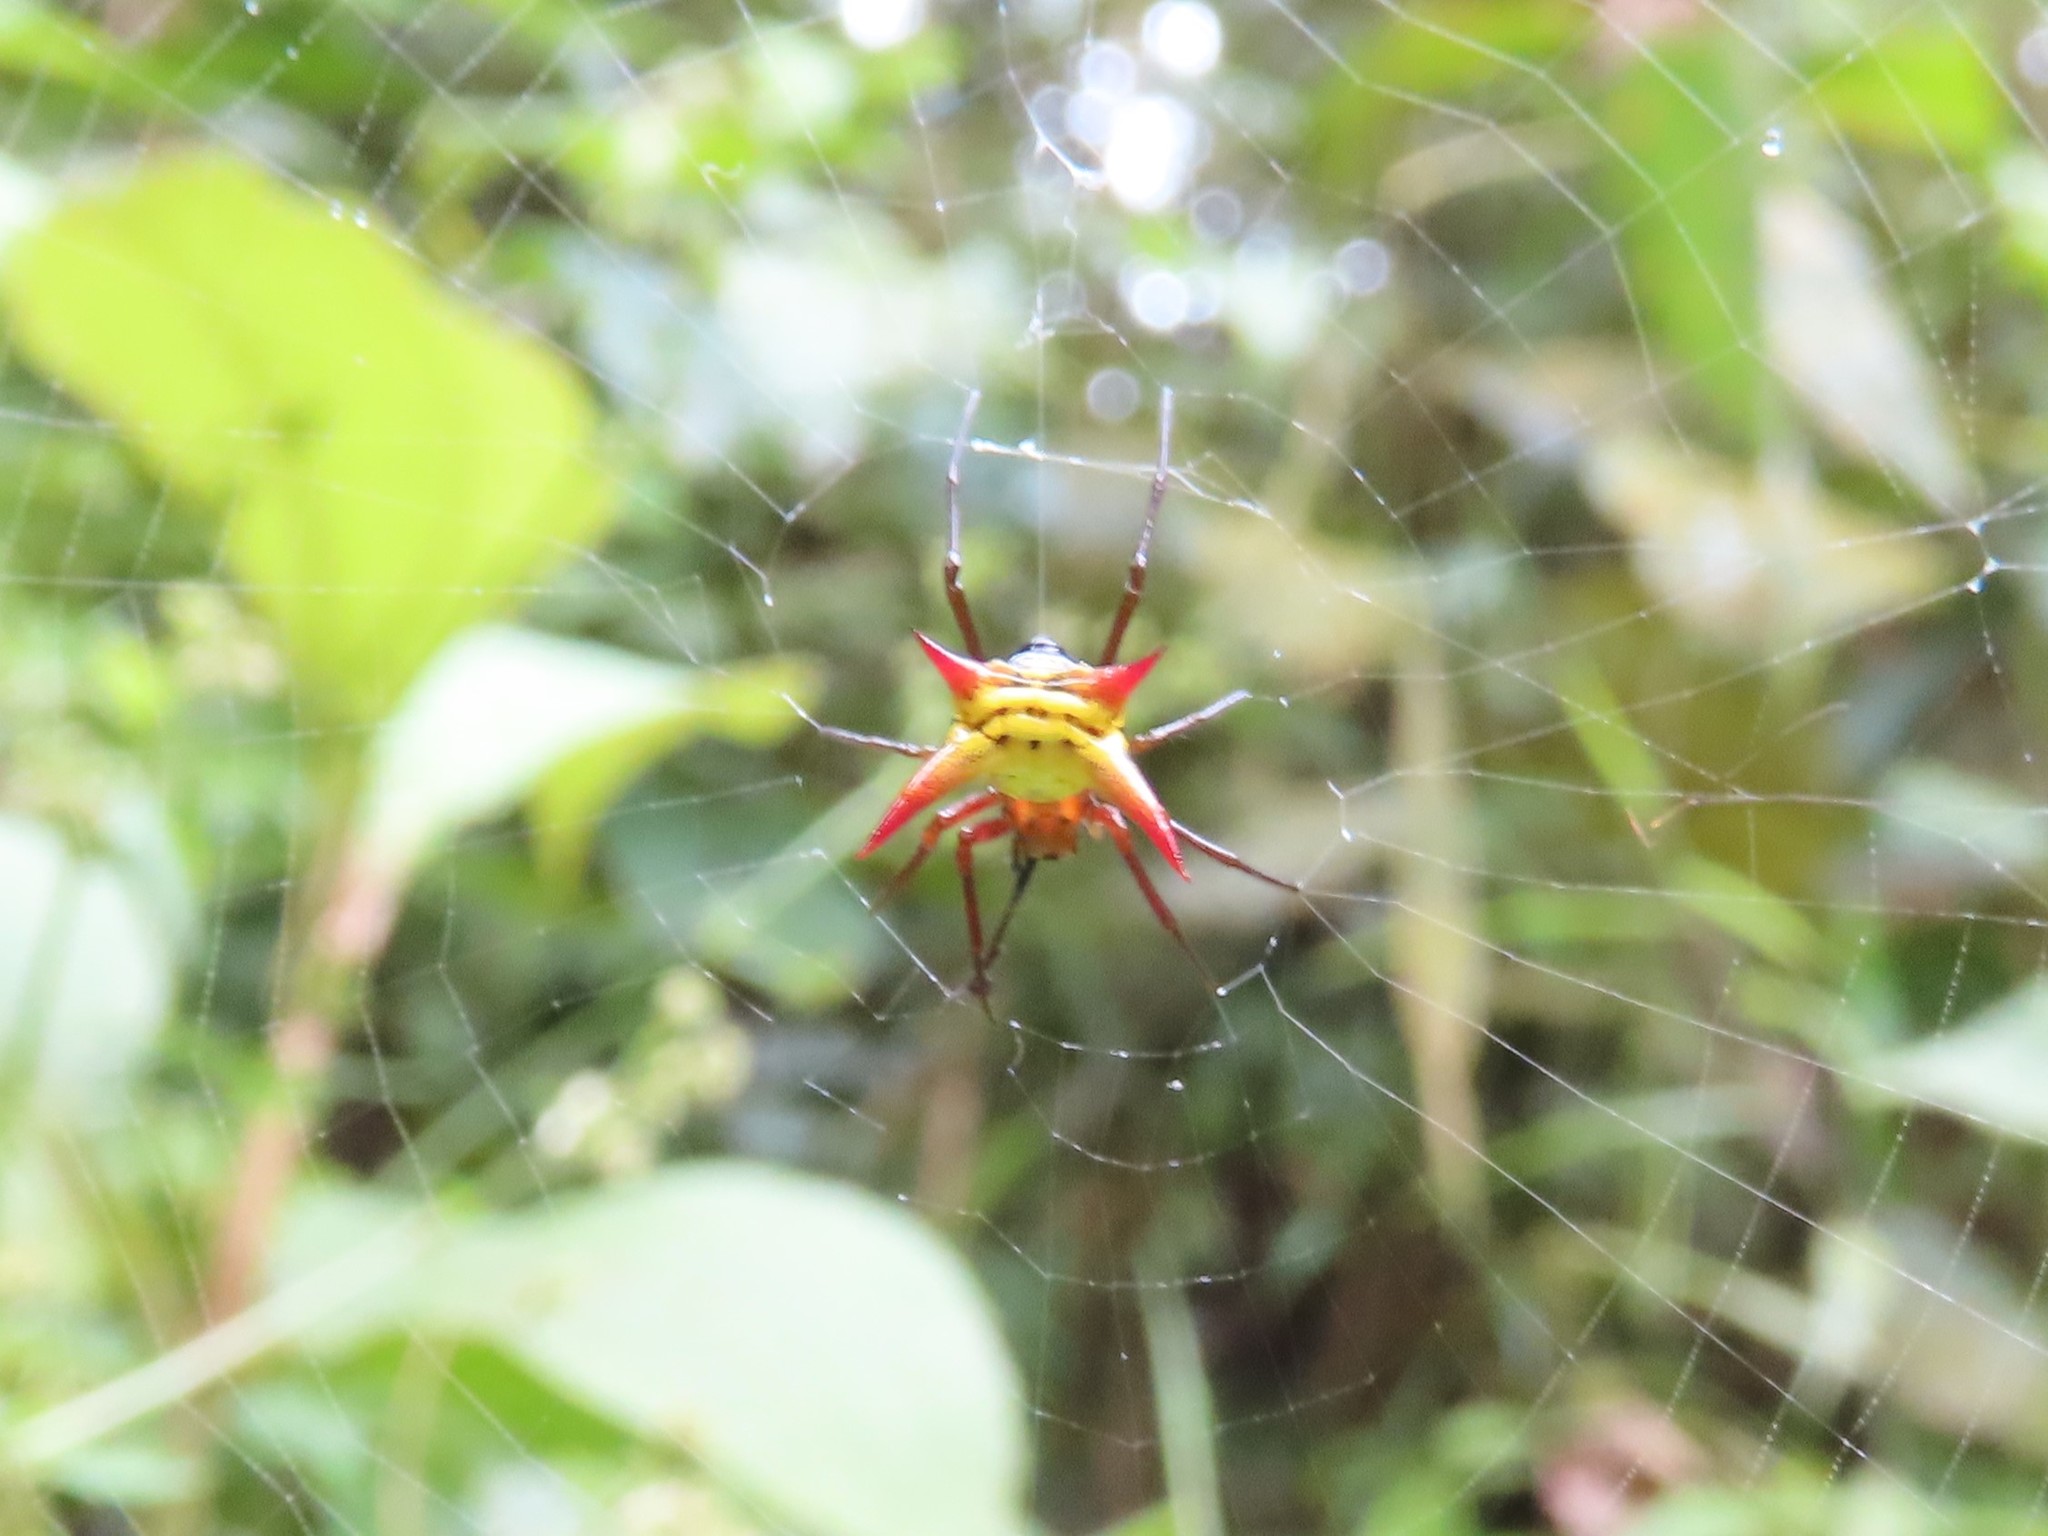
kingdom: Animalia
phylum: Arthropoda
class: Arachnida
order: Araneae
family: Araneidae
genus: Micrathena
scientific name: Micrathena guerini
